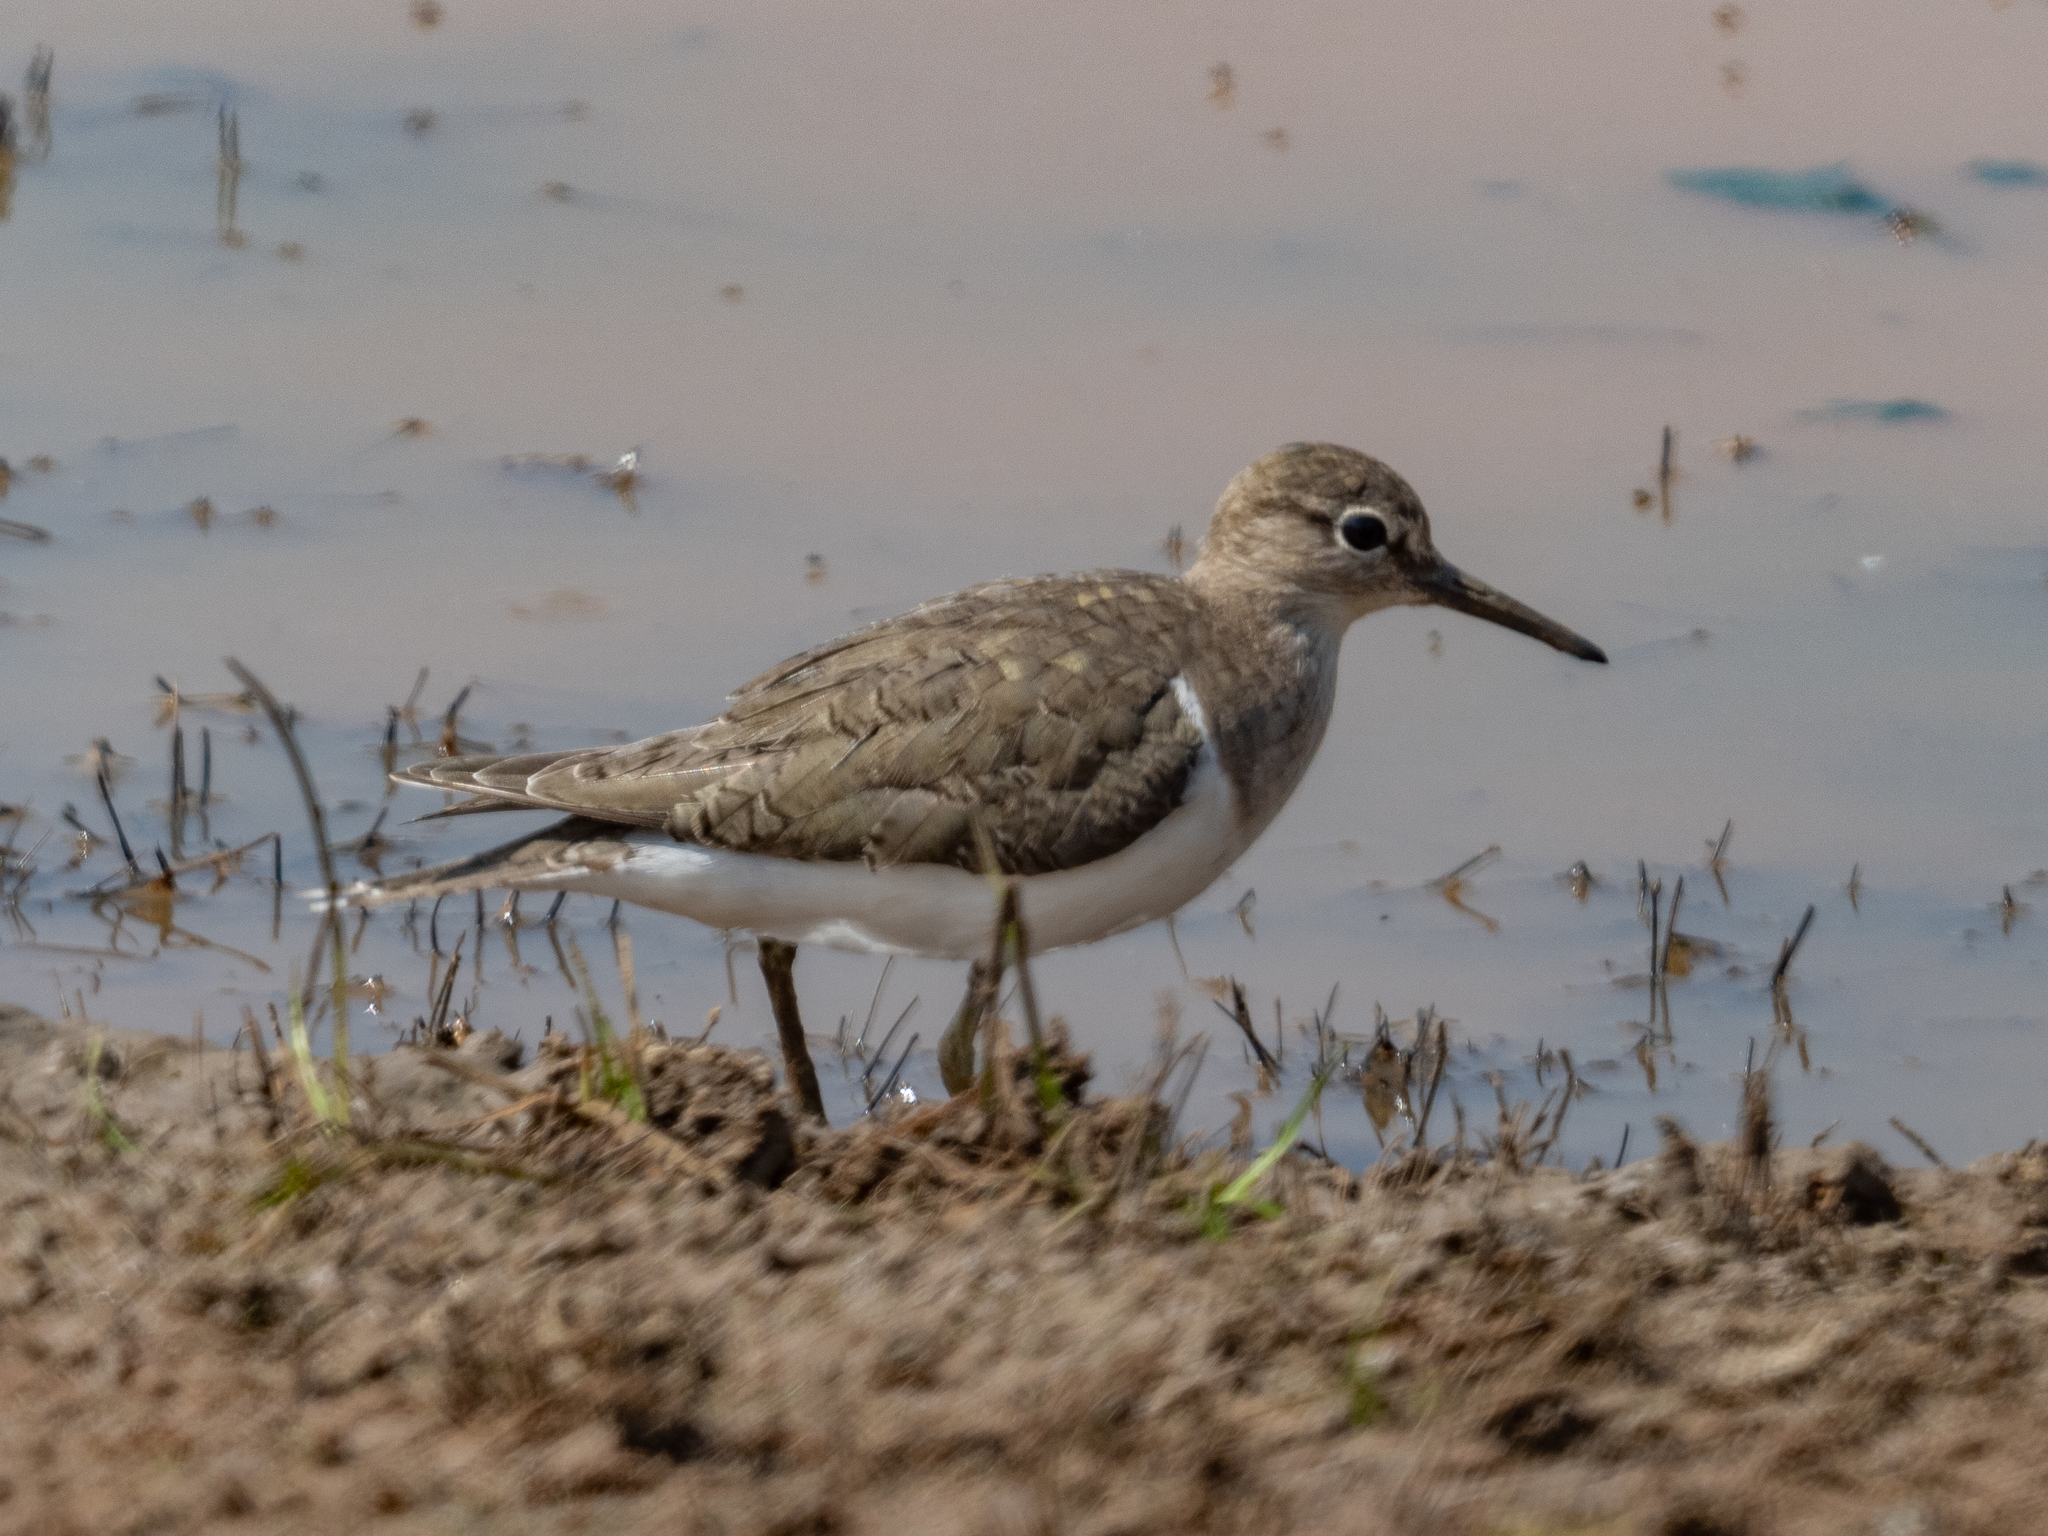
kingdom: Animalia
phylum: Chordata
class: Aves
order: Charadriiformes
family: Scolopacidae
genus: Actitis
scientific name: Actitis hypoleucos
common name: Common sandpiper
